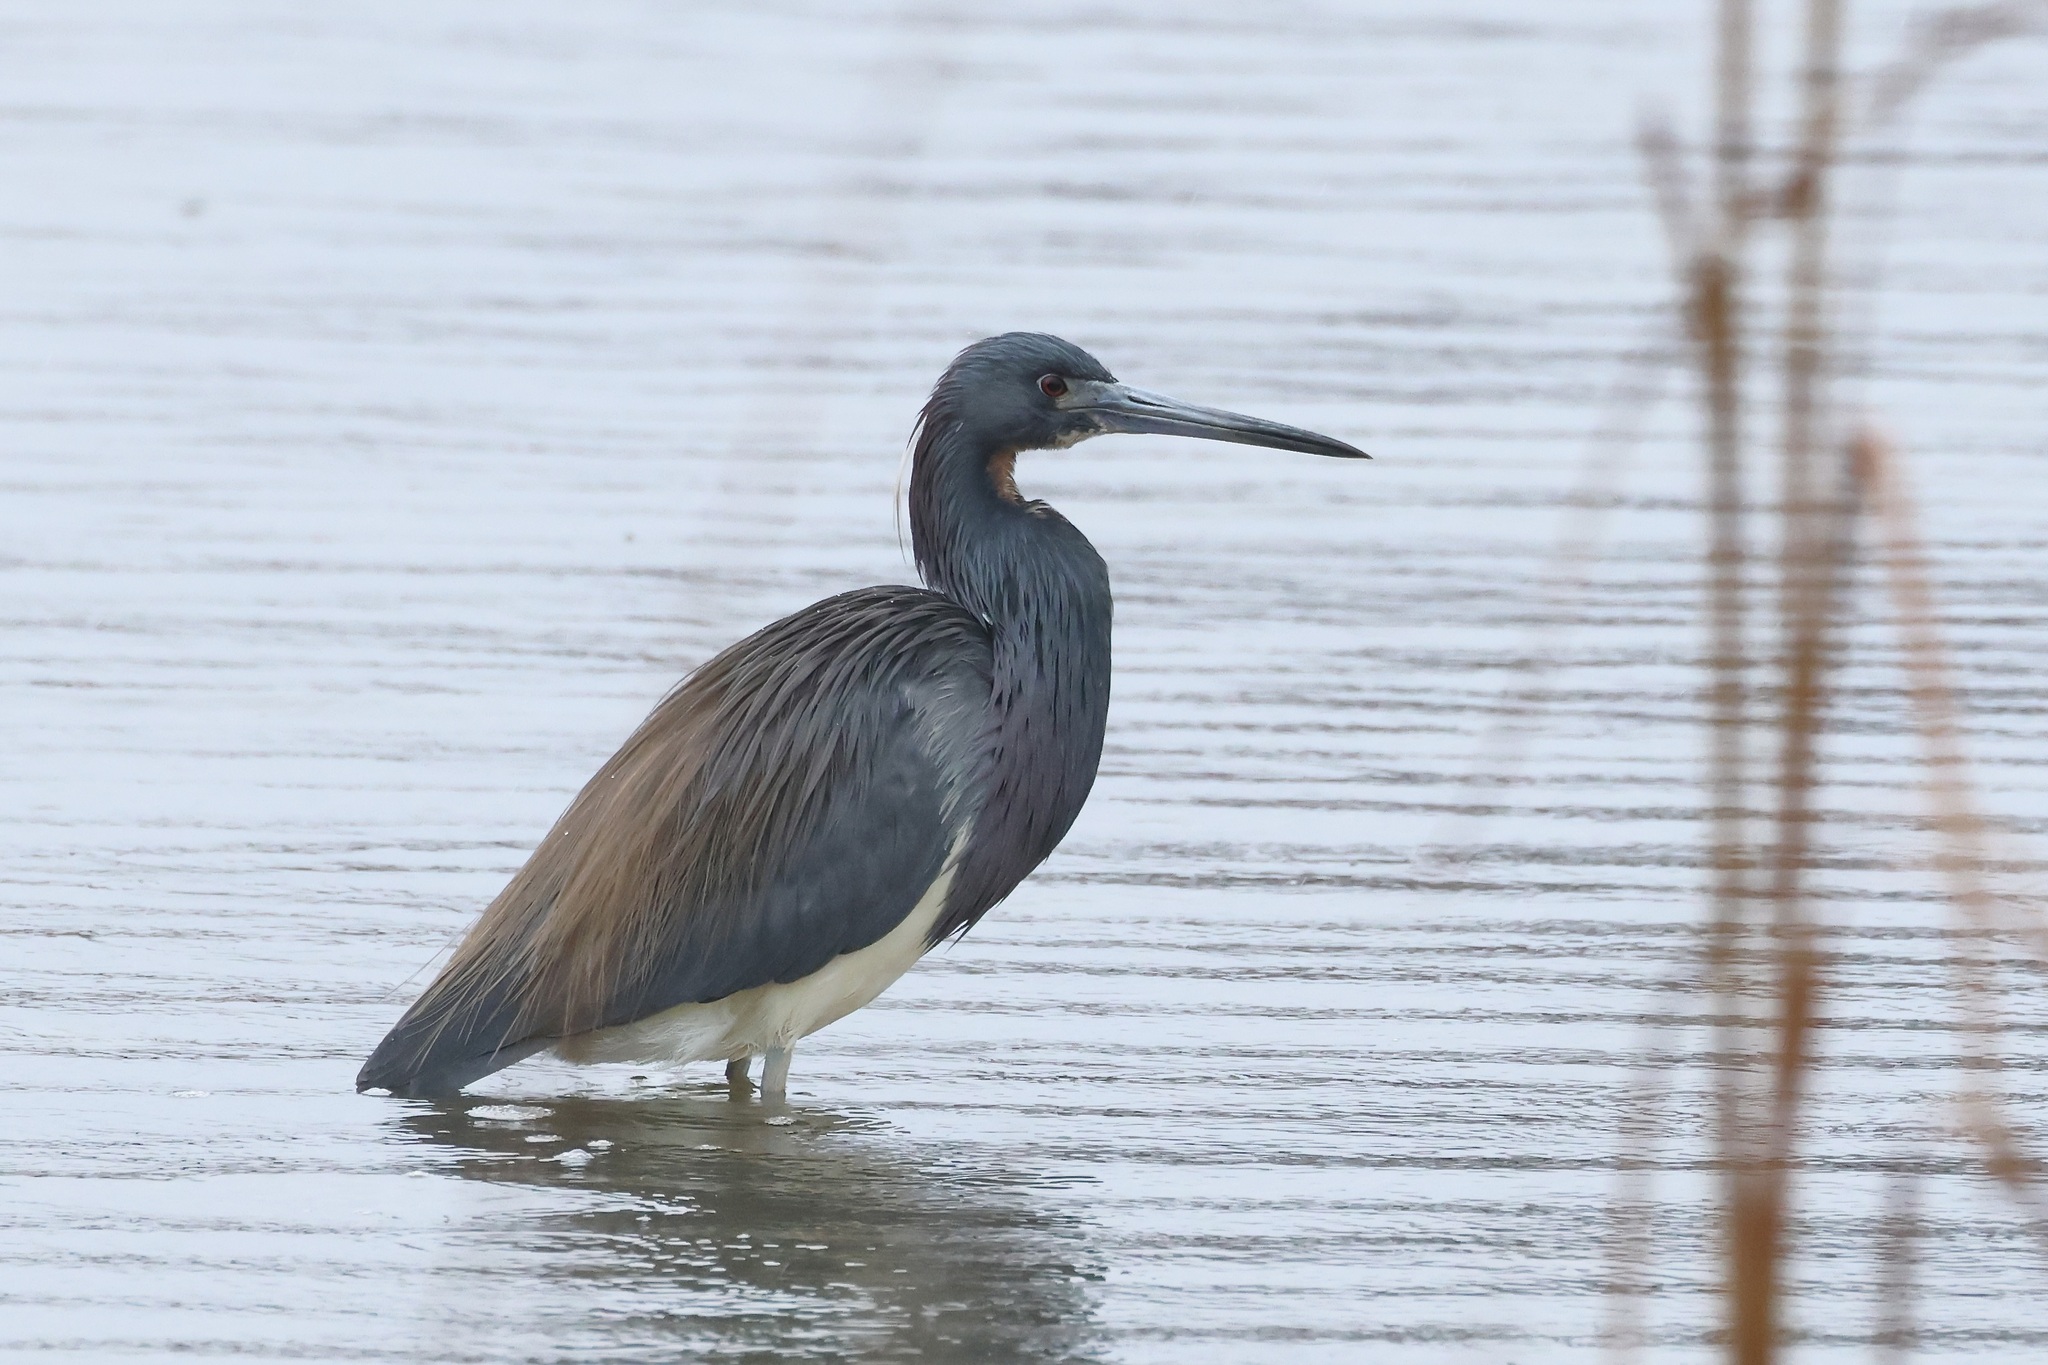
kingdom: Animalia
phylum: Chordata
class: Aves
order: Pelecaniformes
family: Ardeidae
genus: Egretta
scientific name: Egretta tricolor
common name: Tricolored heron
